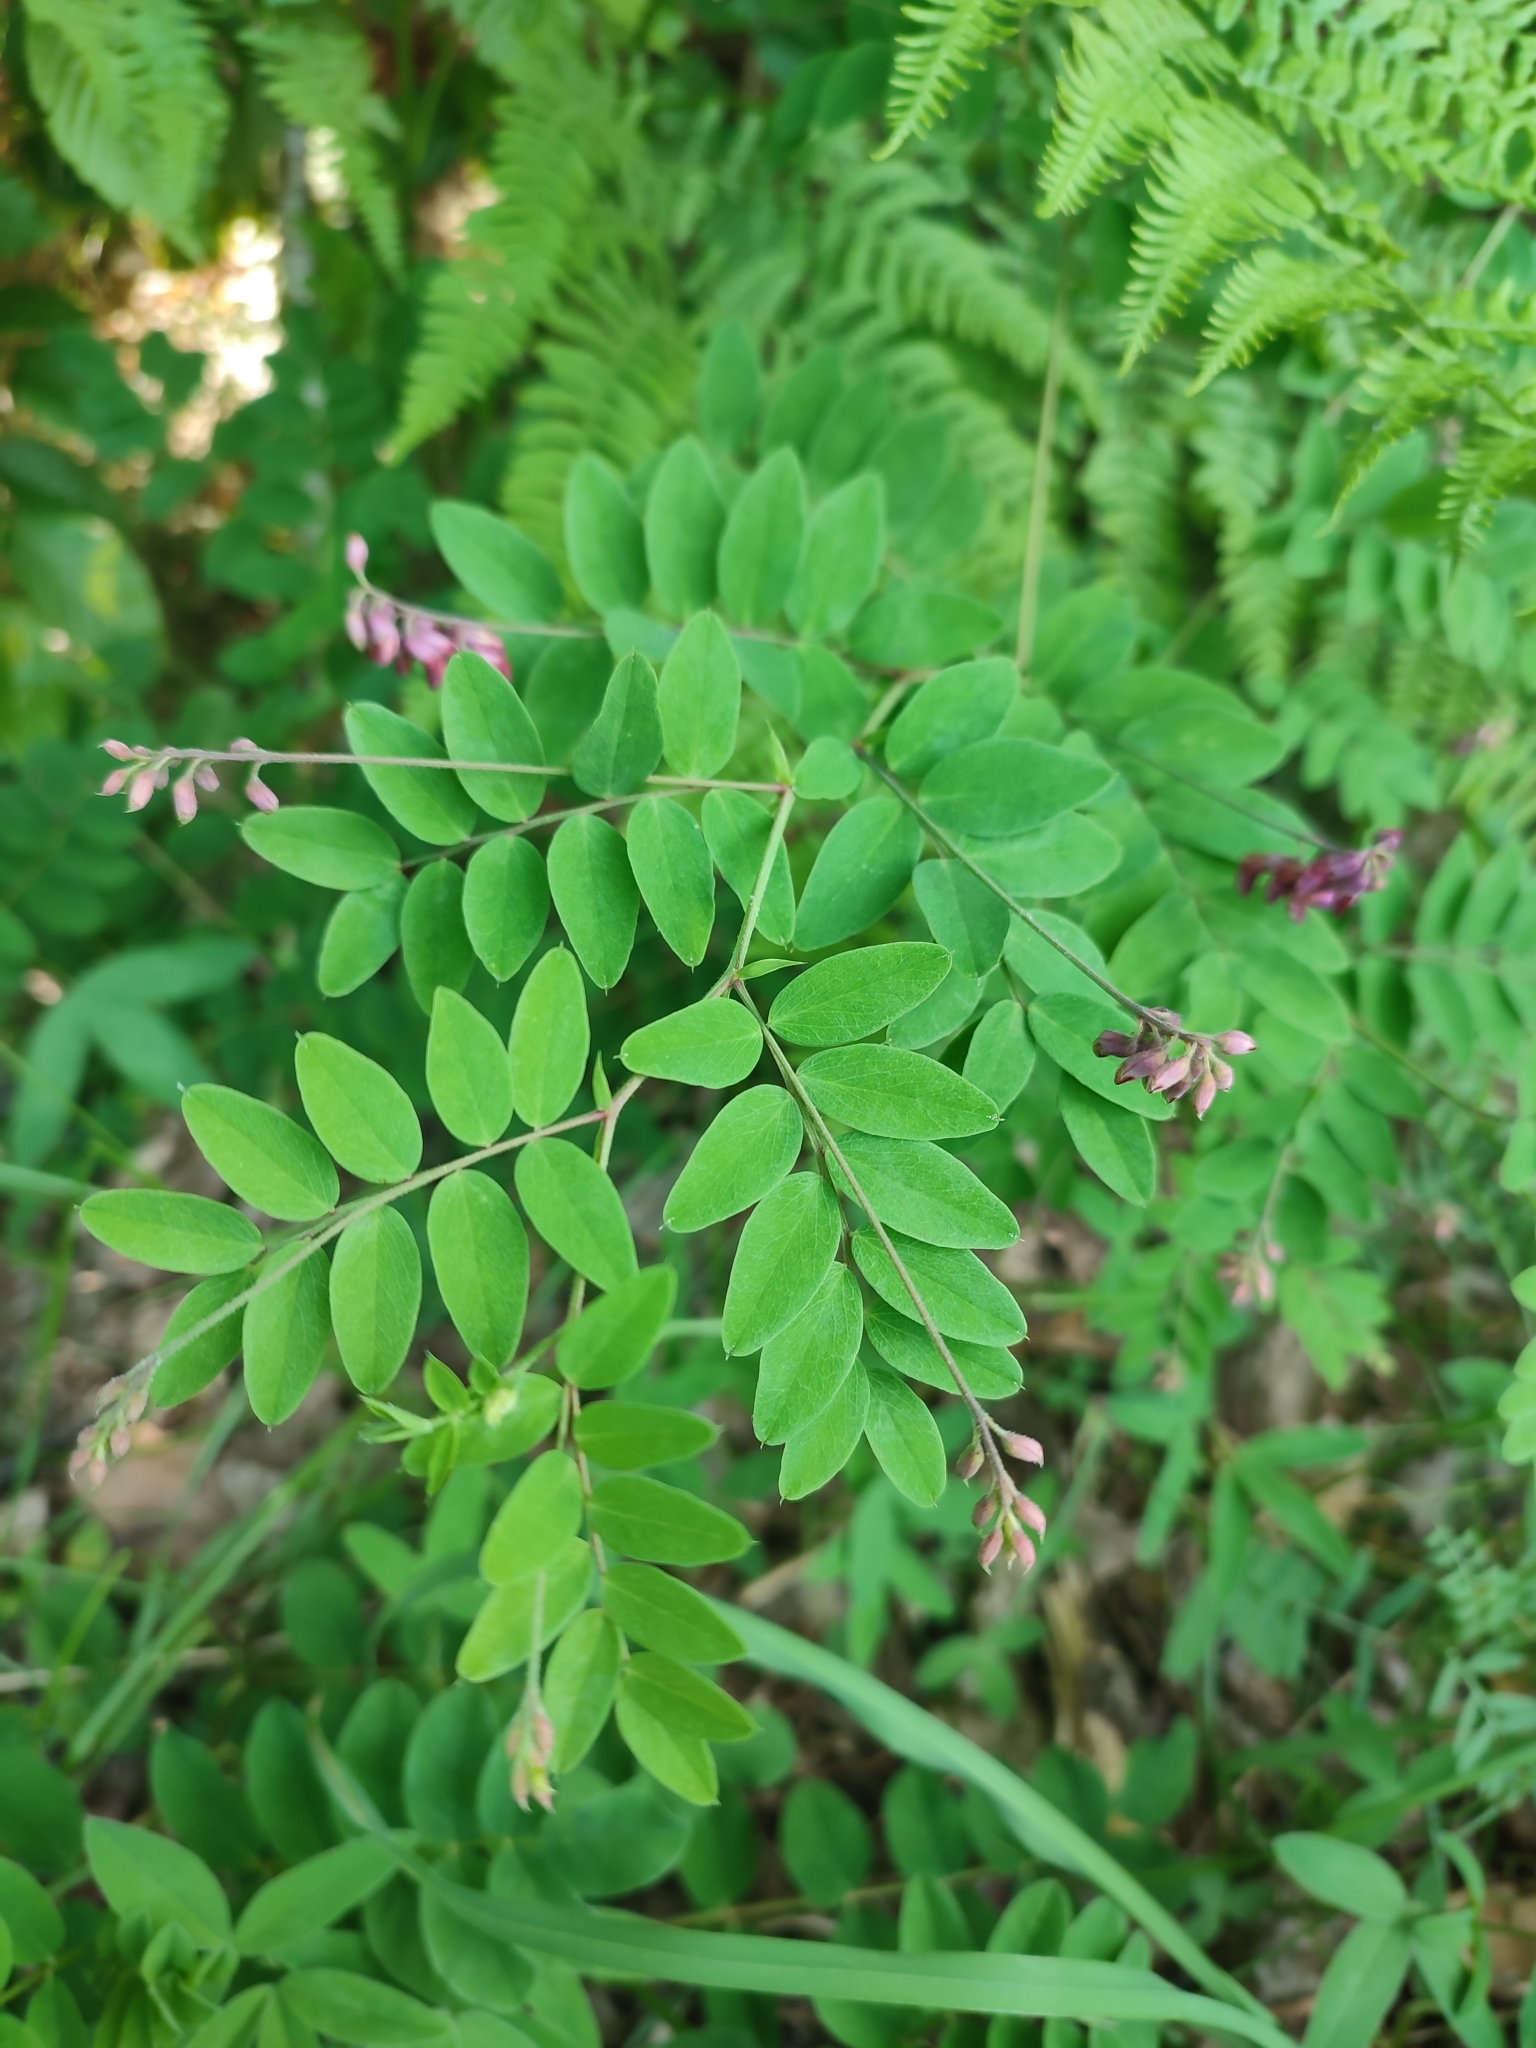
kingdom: Plantae
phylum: Tracheophyta
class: Magnoliopsida
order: Fabales
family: Fabaceae
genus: Lathyrus
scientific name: Lathyrus niger
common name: Black pea
